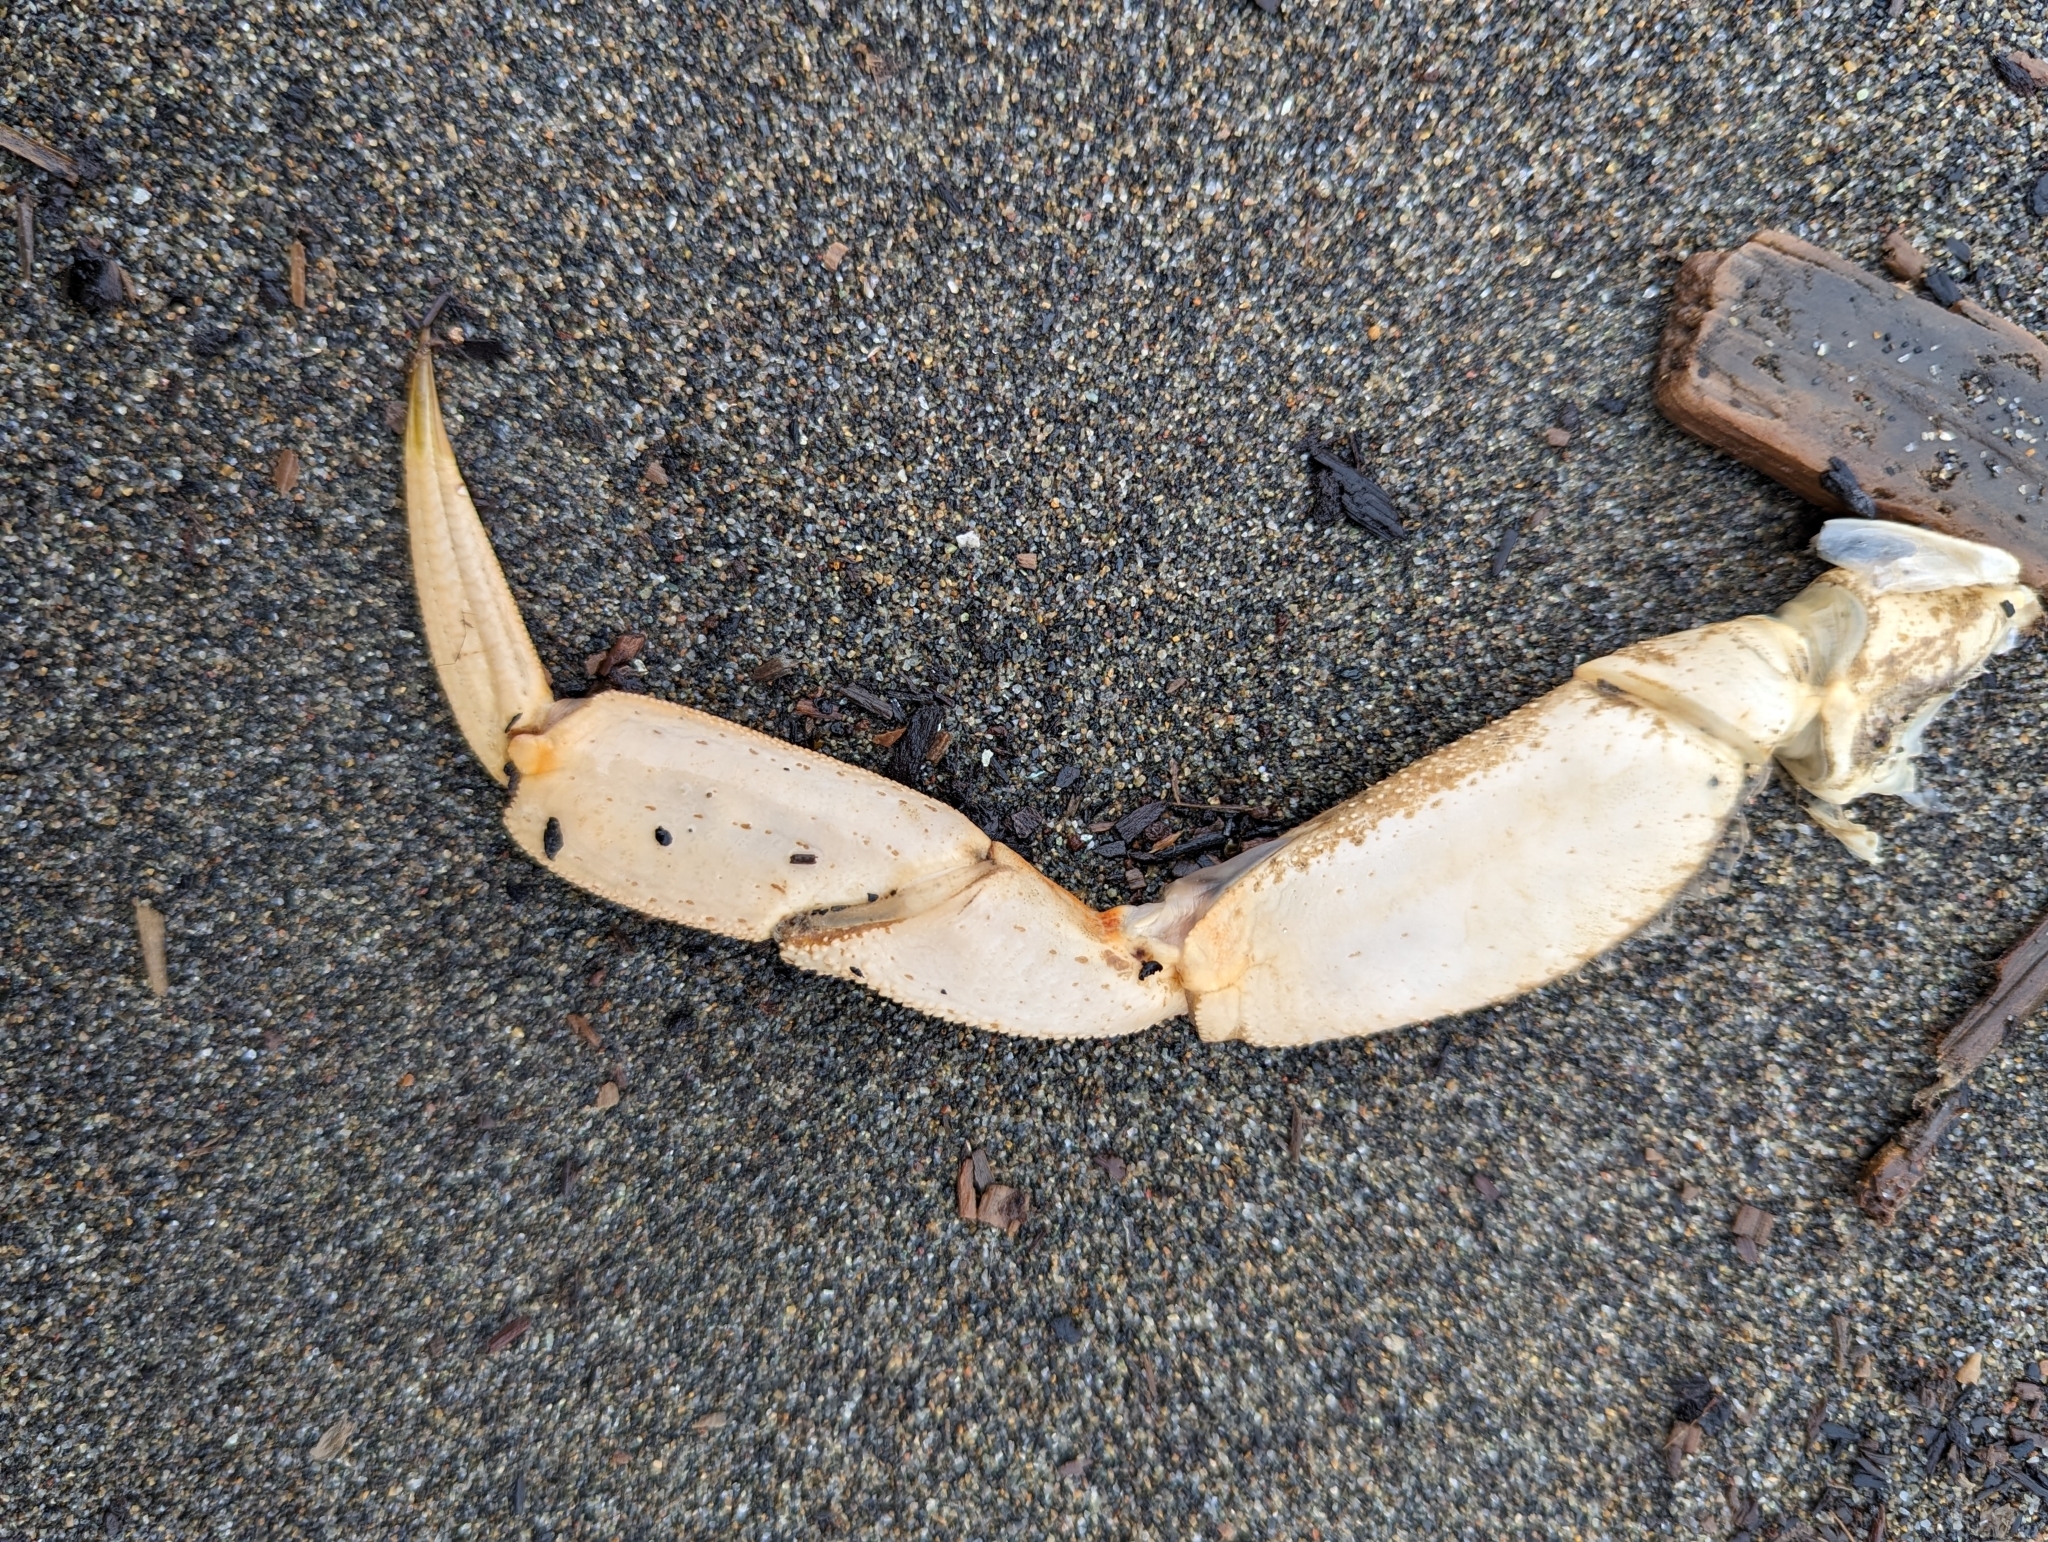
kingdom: Animalia
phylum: Arthropoda
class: Malacostraca
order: Decapoda
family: Cancridae
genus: Metacarcinus
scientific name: Metacarcinus magister
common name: Californian crab
